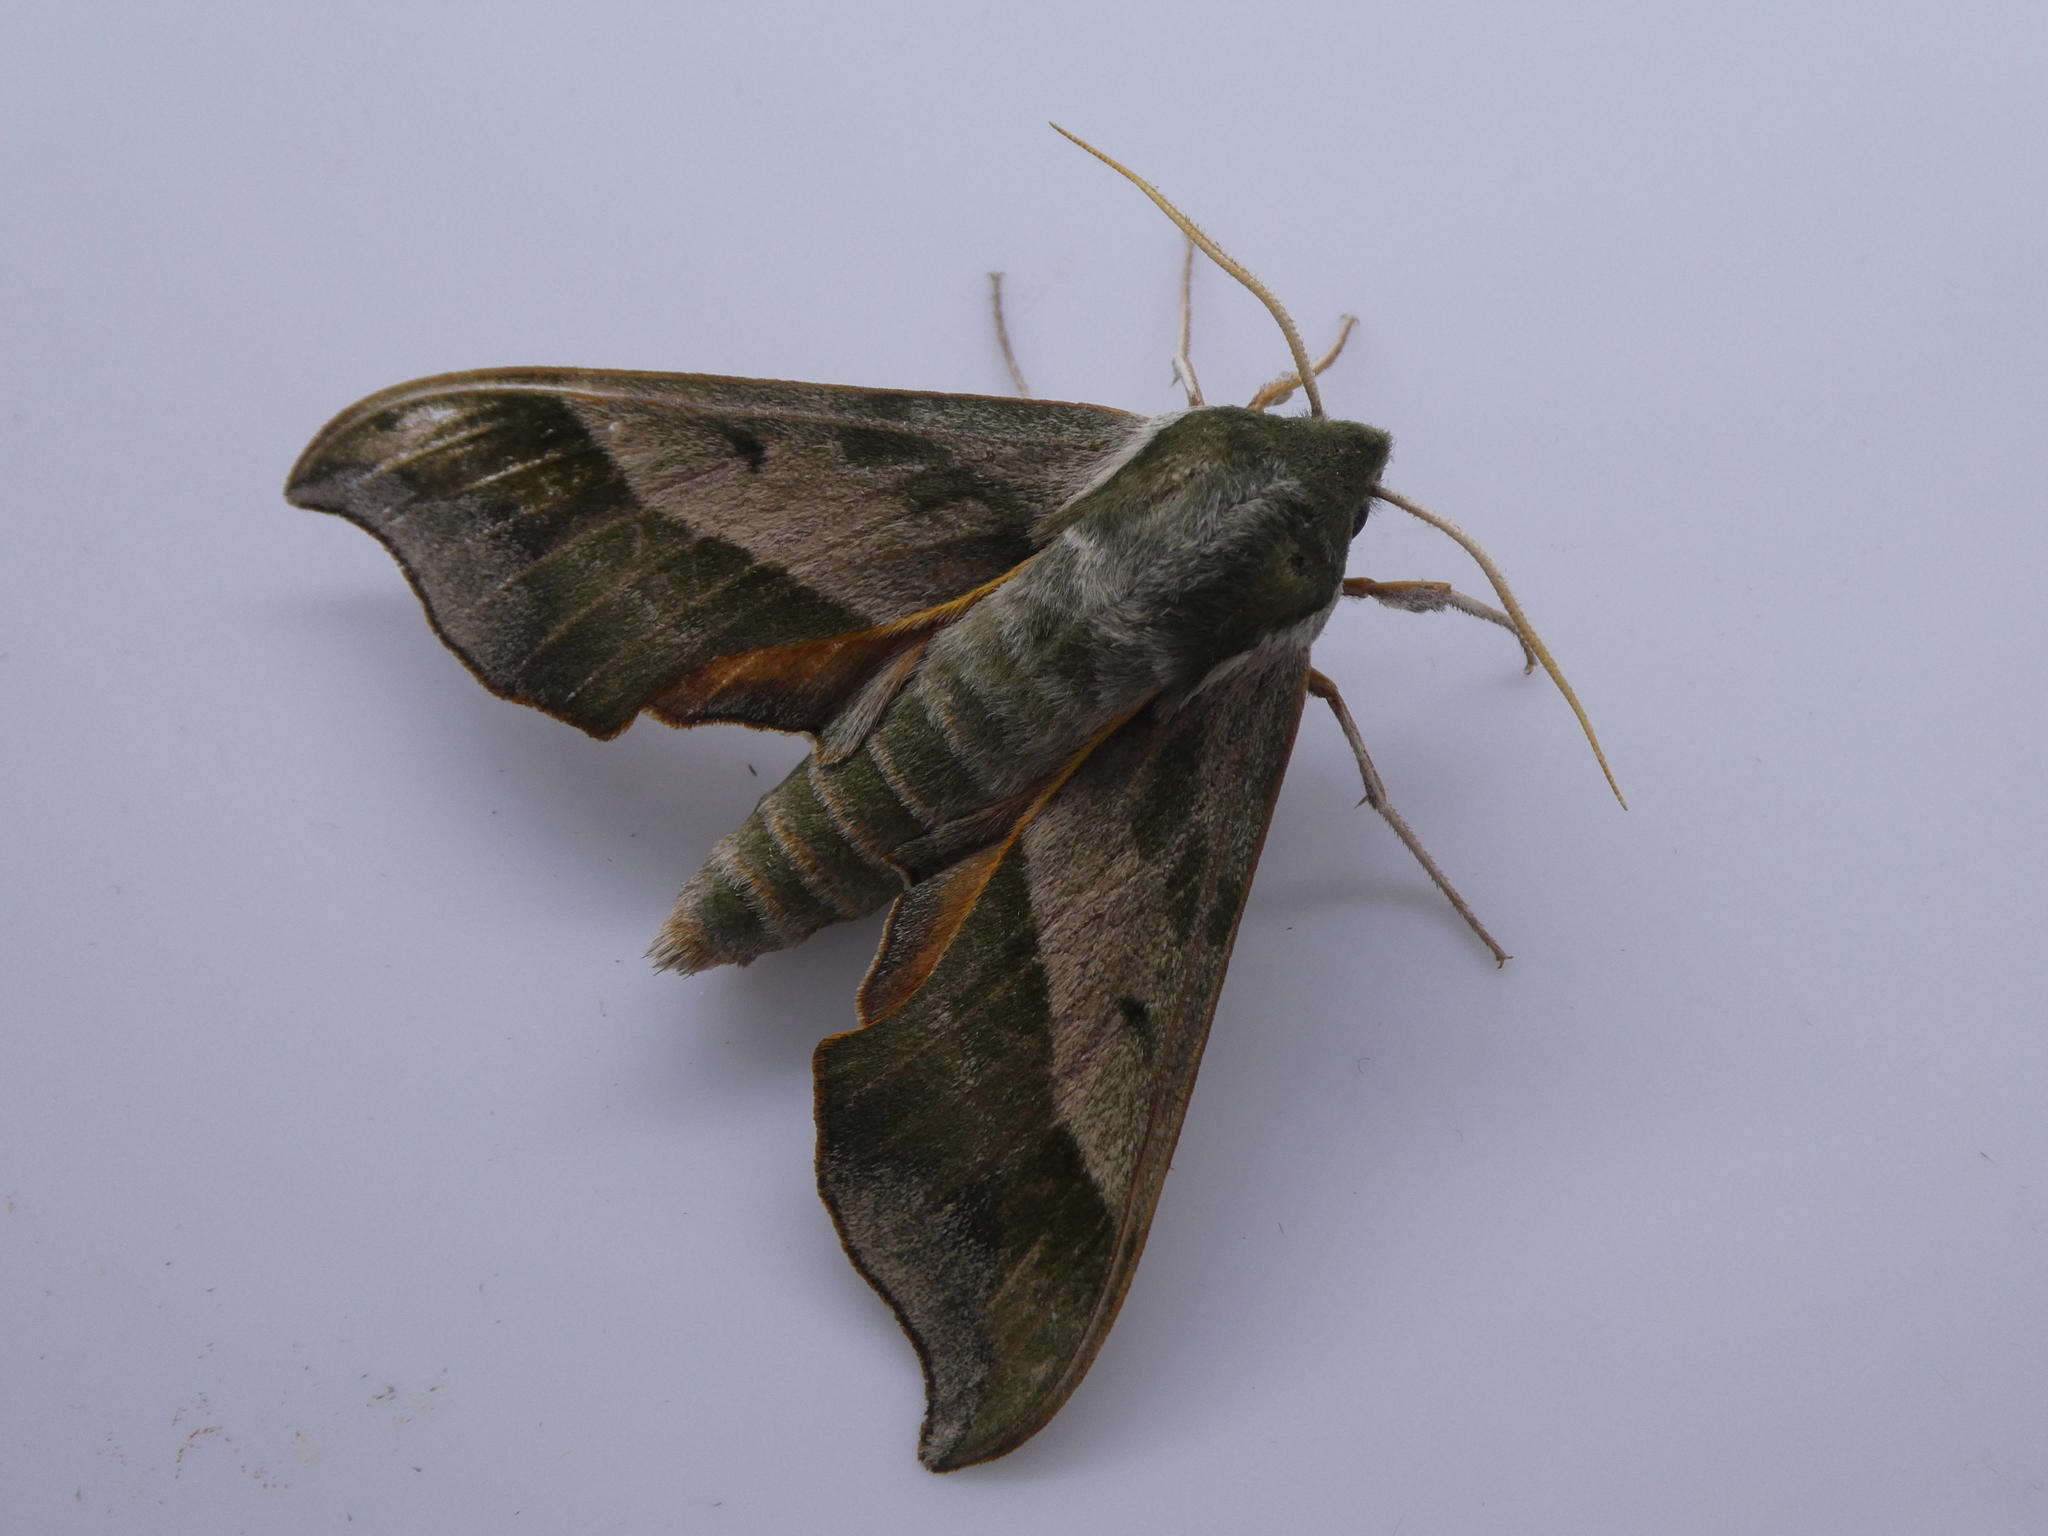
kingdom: Animalia
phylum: Arthropoda
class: Insecta
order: Lepidoptera
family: Sphingidae
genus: Darapsa
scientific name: Darapsa myron
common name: Hog sphinx
